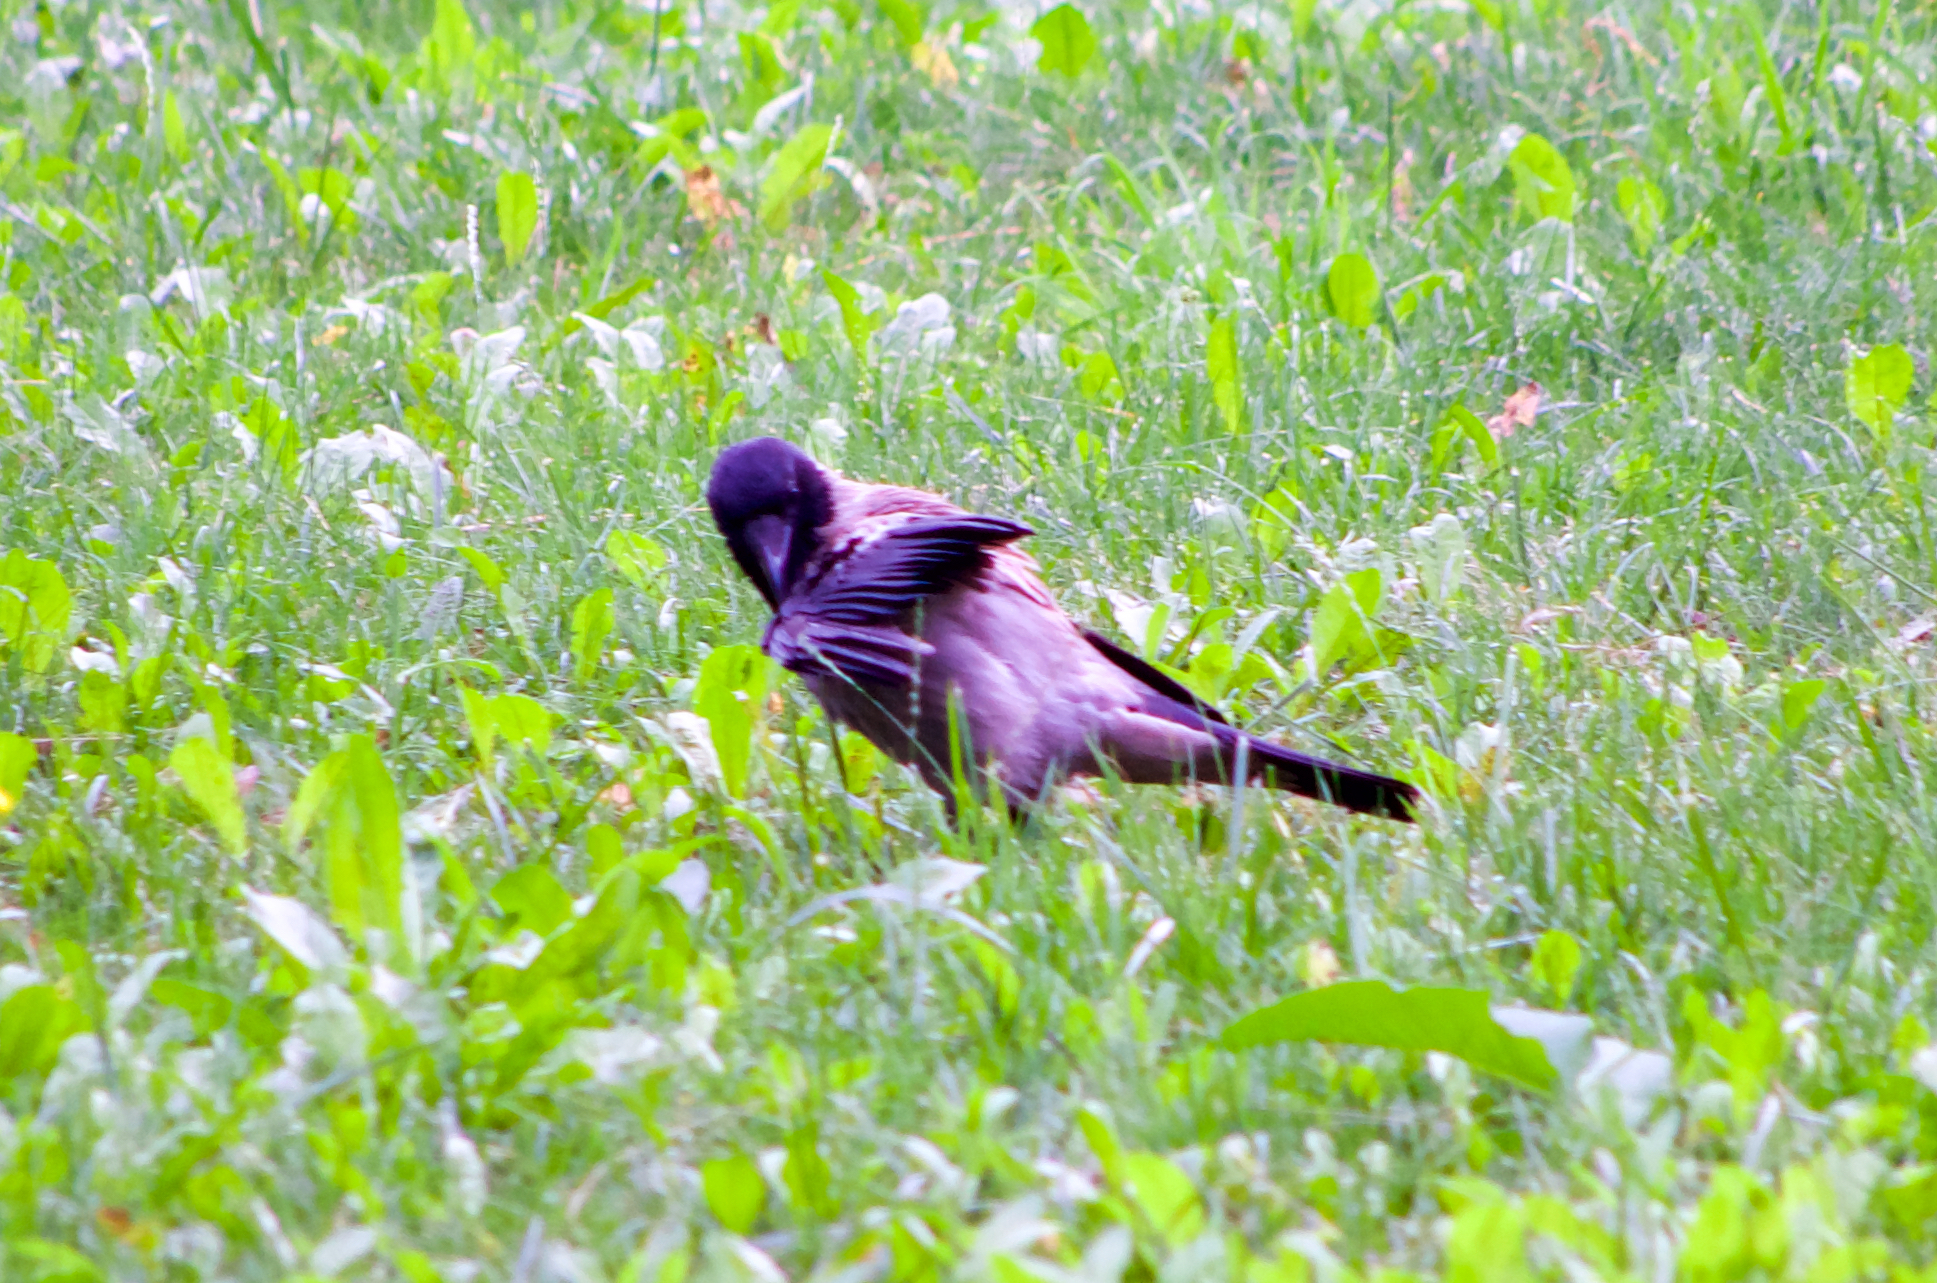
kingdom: Animalia
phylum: Chordata
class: Aves
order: Passeriformes
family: Corvidae
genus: Corvus
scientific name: Corvus cornix
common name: Hooded crow
